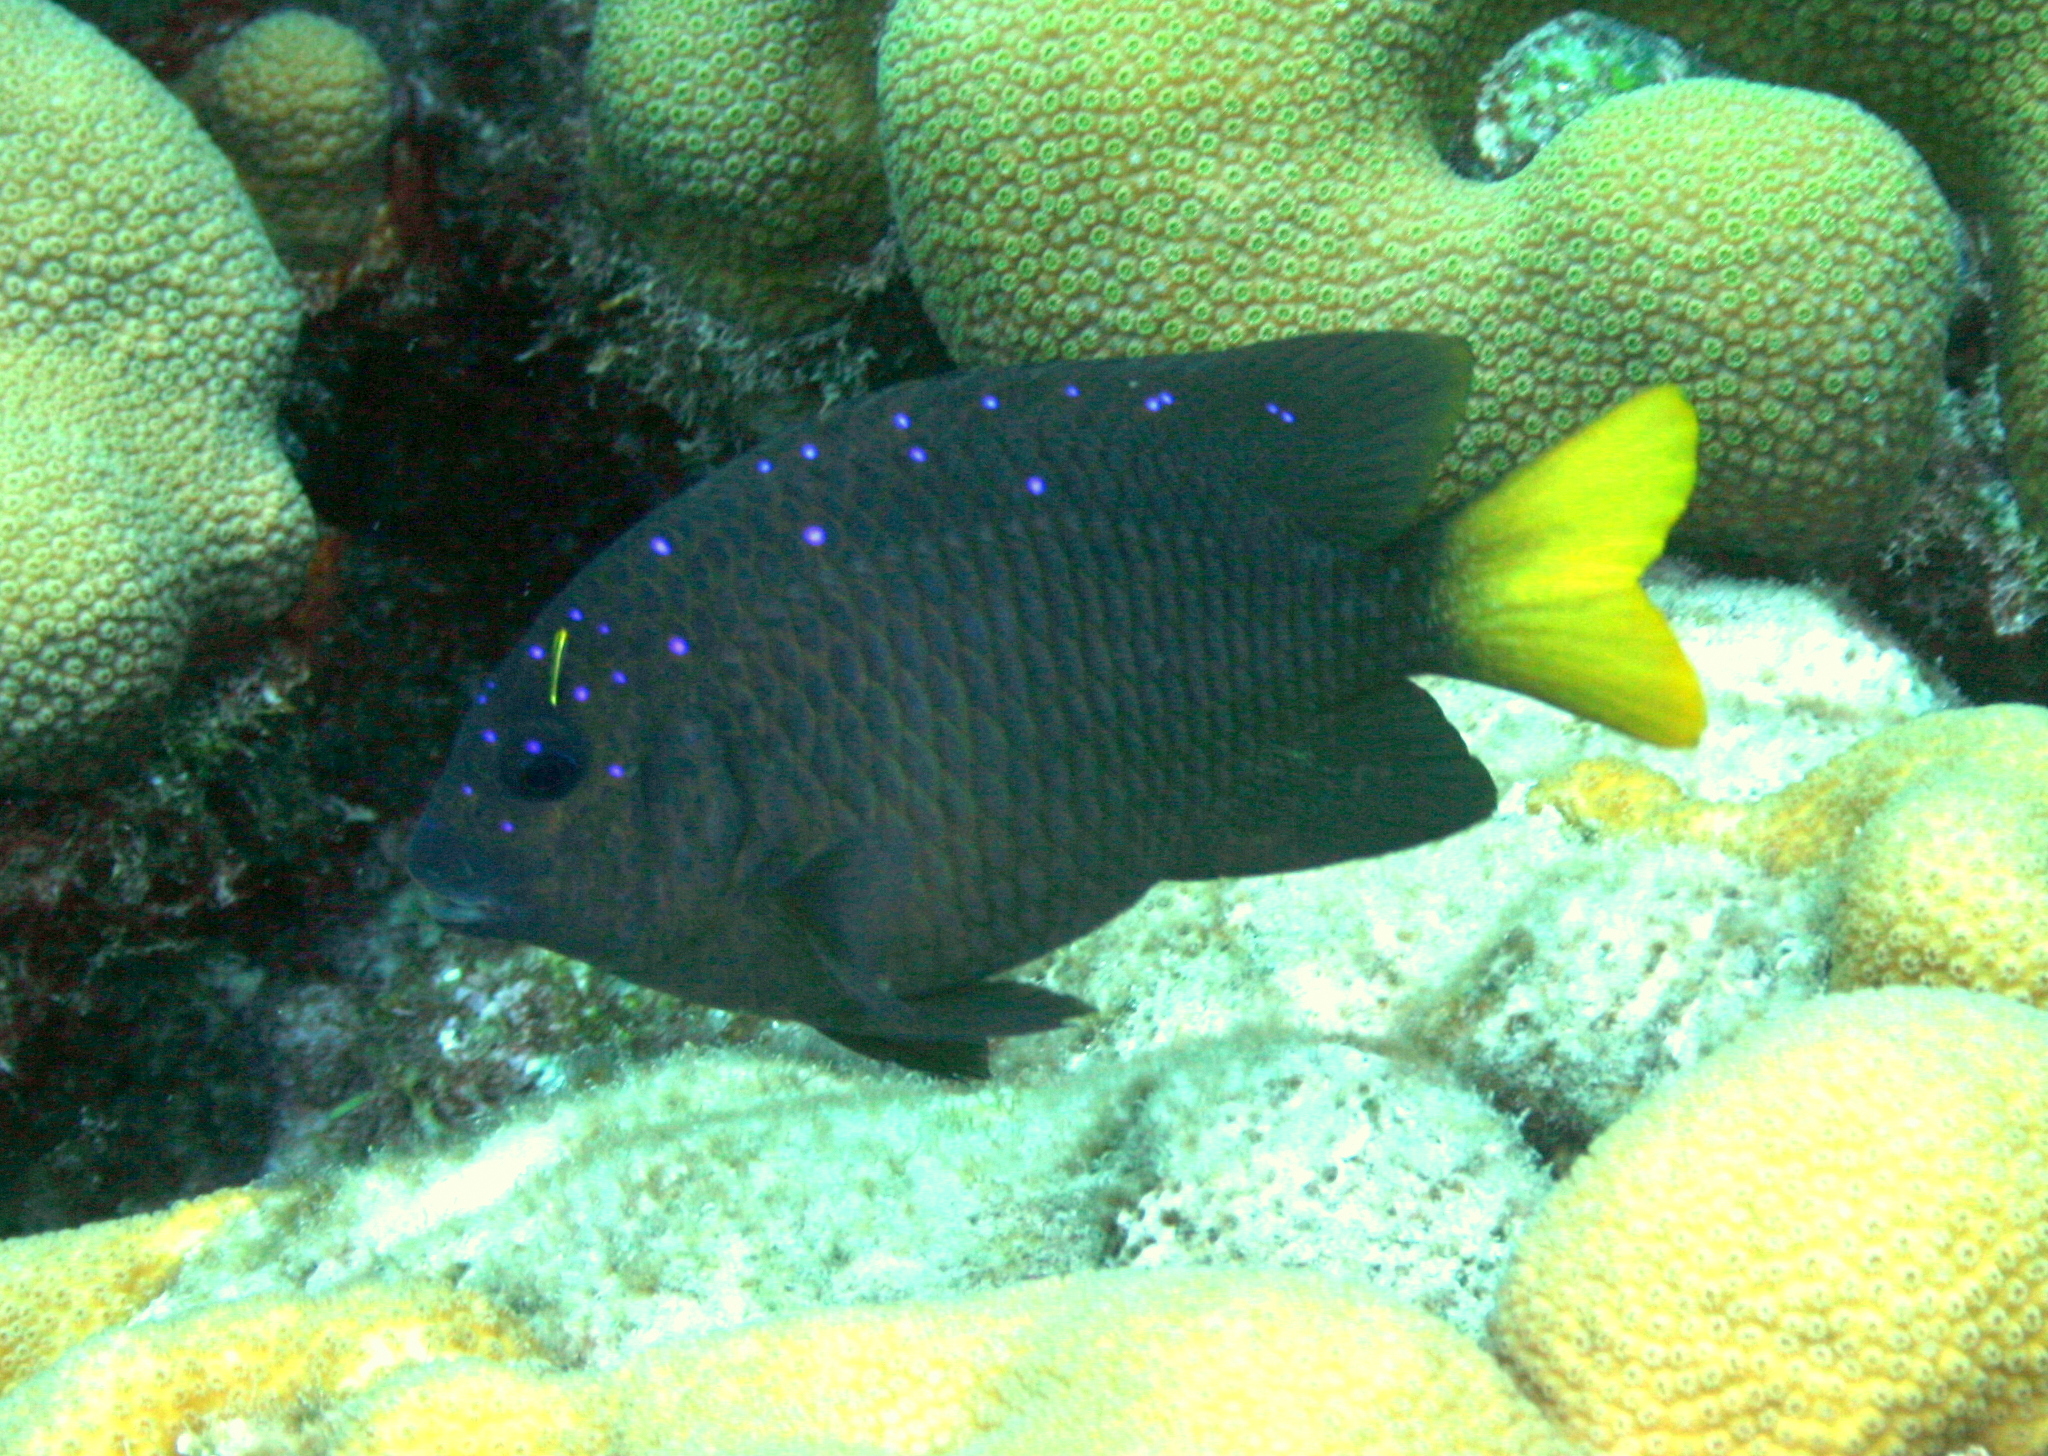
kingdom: Animalia
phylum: Chordata
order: Perciformes
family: Pomacentridae
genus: Microspathodon
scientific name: Microspathodon chrysurus
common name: Yellowtail damselfish
